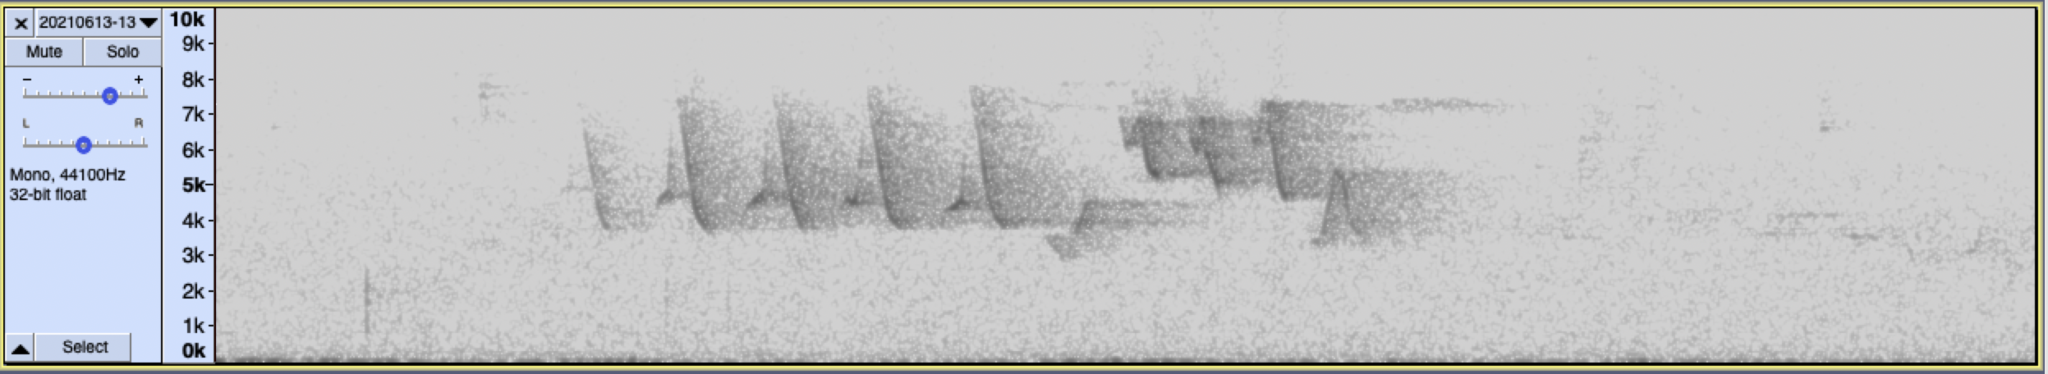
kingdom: Animalia
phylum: Chordata
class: Aves
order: Passeriformes
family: Parulidae
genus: Setophaga
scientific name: Setophaga petechia
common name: Yellow warbler
